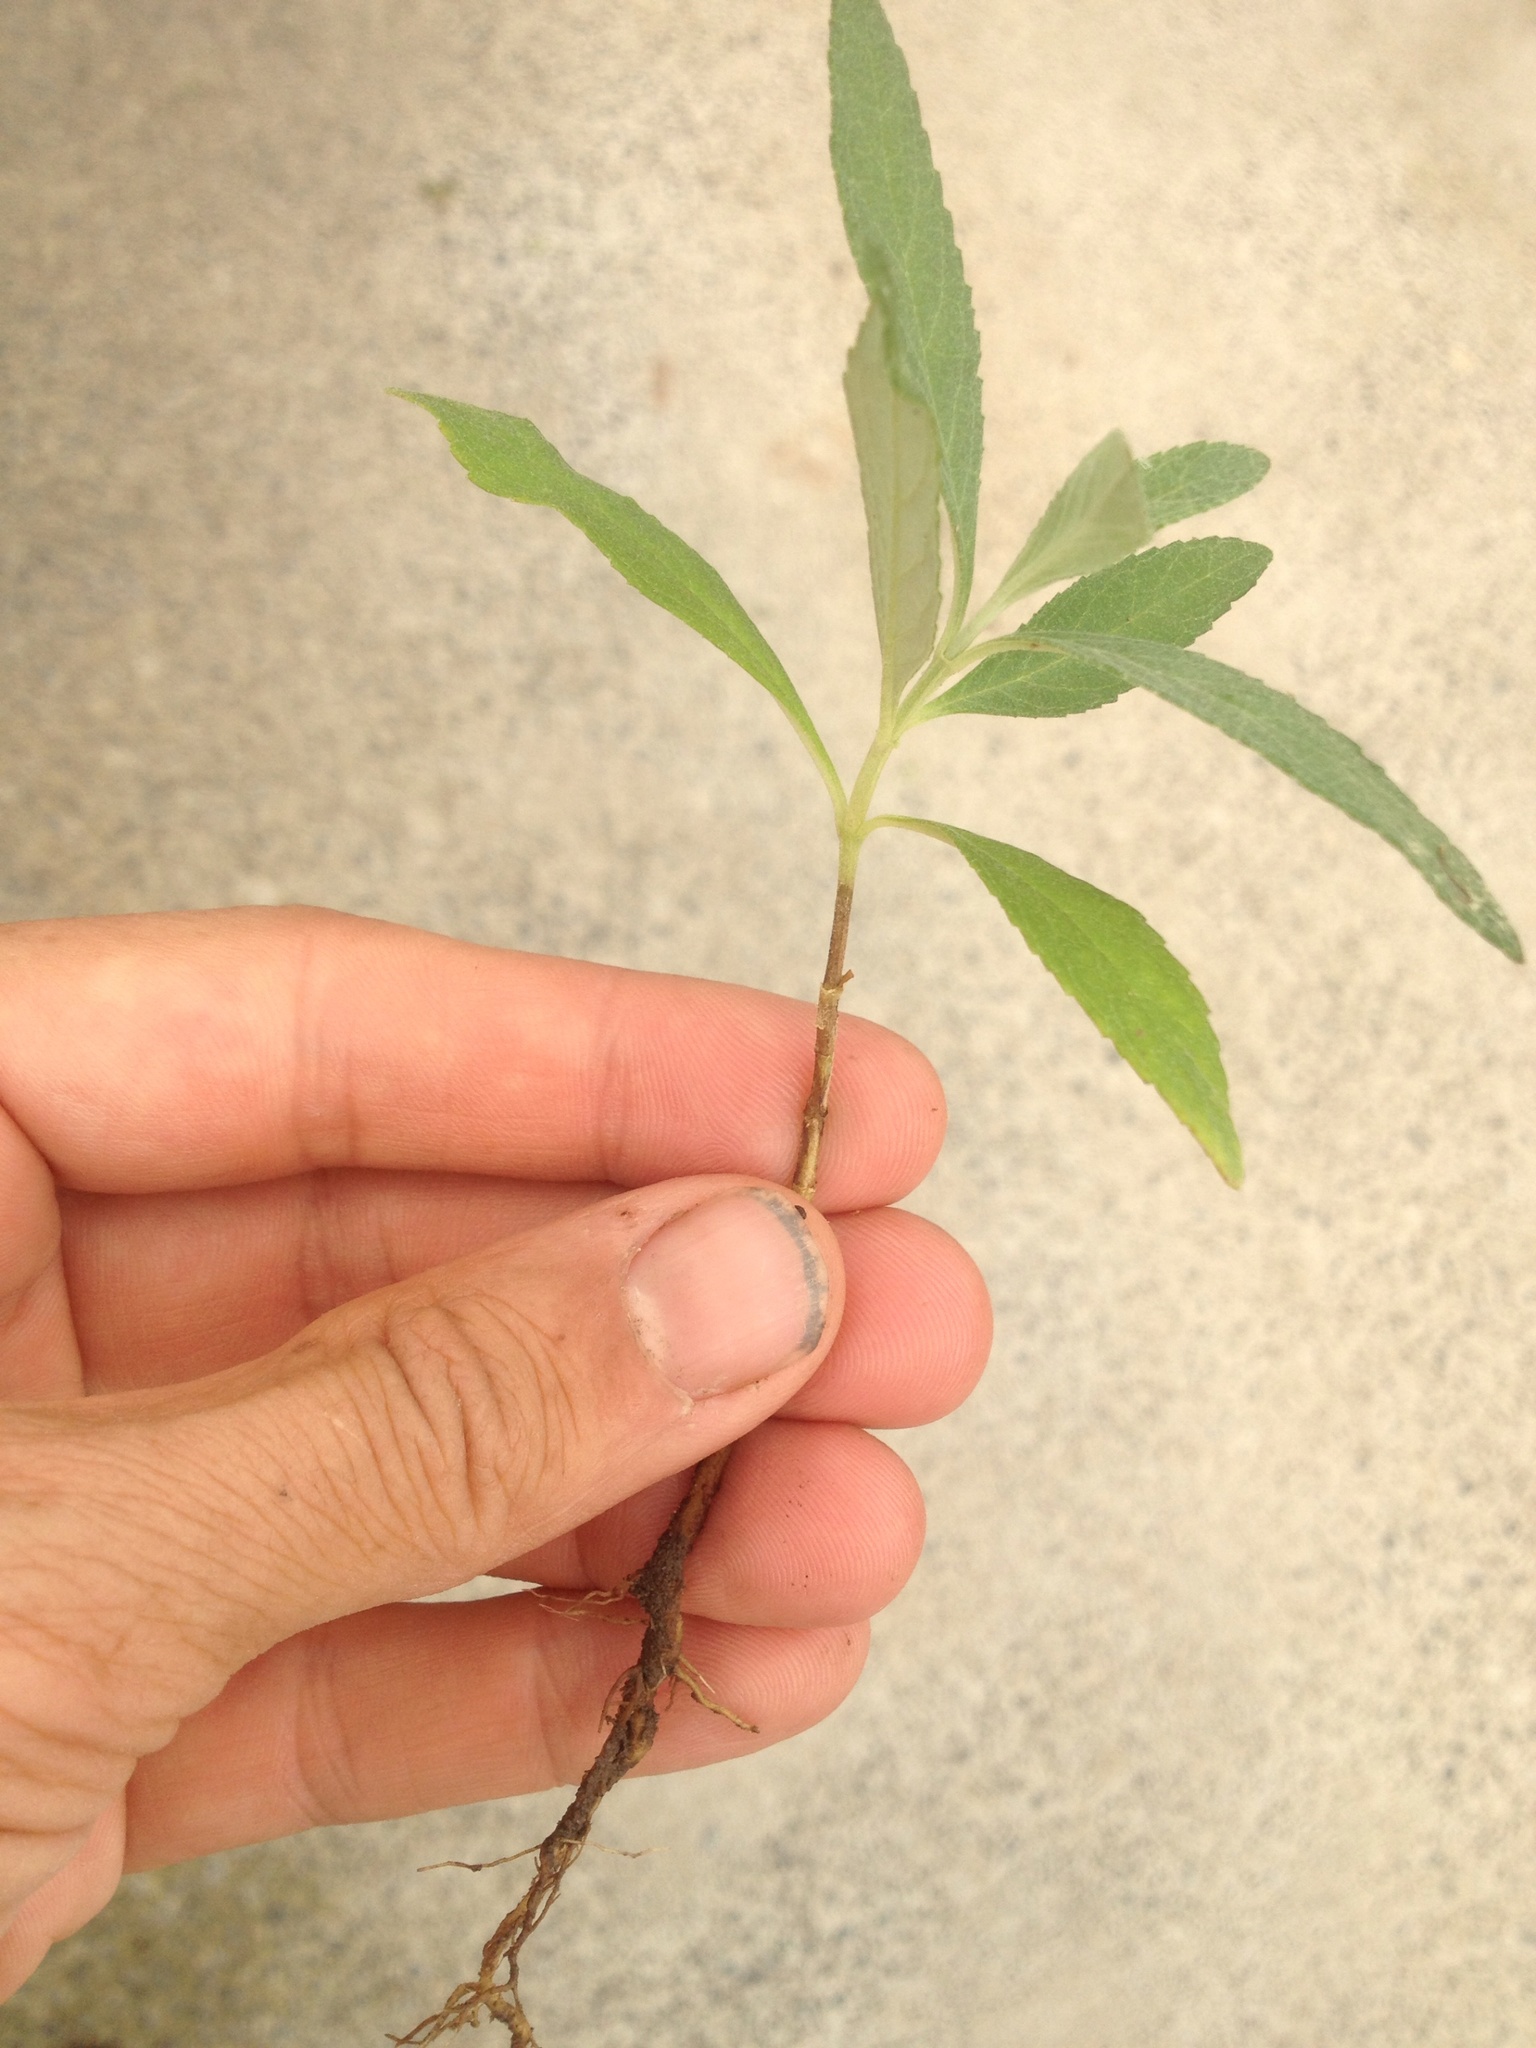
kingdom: Plantae
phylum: Tracheophyta
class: Magnoliopsida
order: Lamiales
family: Scrophulariaceae
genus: Buddleja
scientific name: Buddleja davidii
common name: Butterfly-bush
